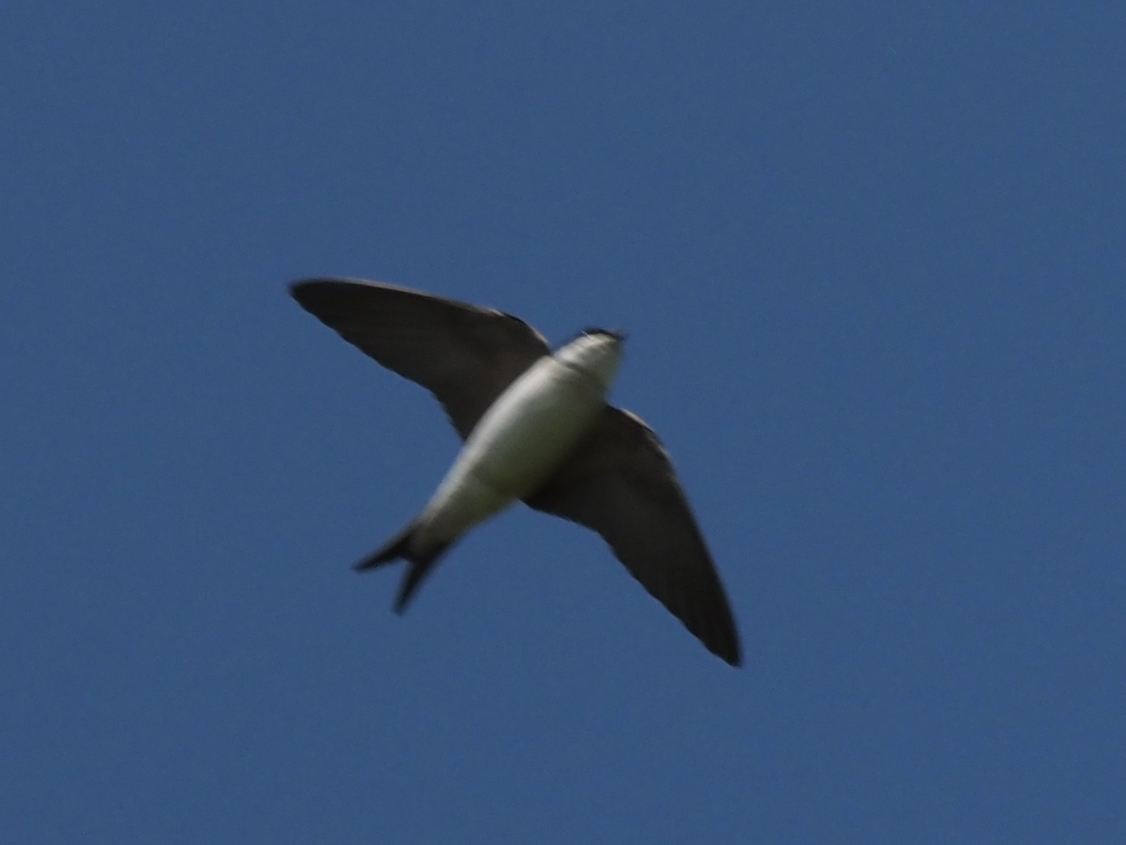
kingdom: Animalia
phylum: Chordata
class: Aves
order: Passeriformes
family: Hirundinidae
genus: Delichon
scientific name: Delichon urbicum
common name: Common house martin
